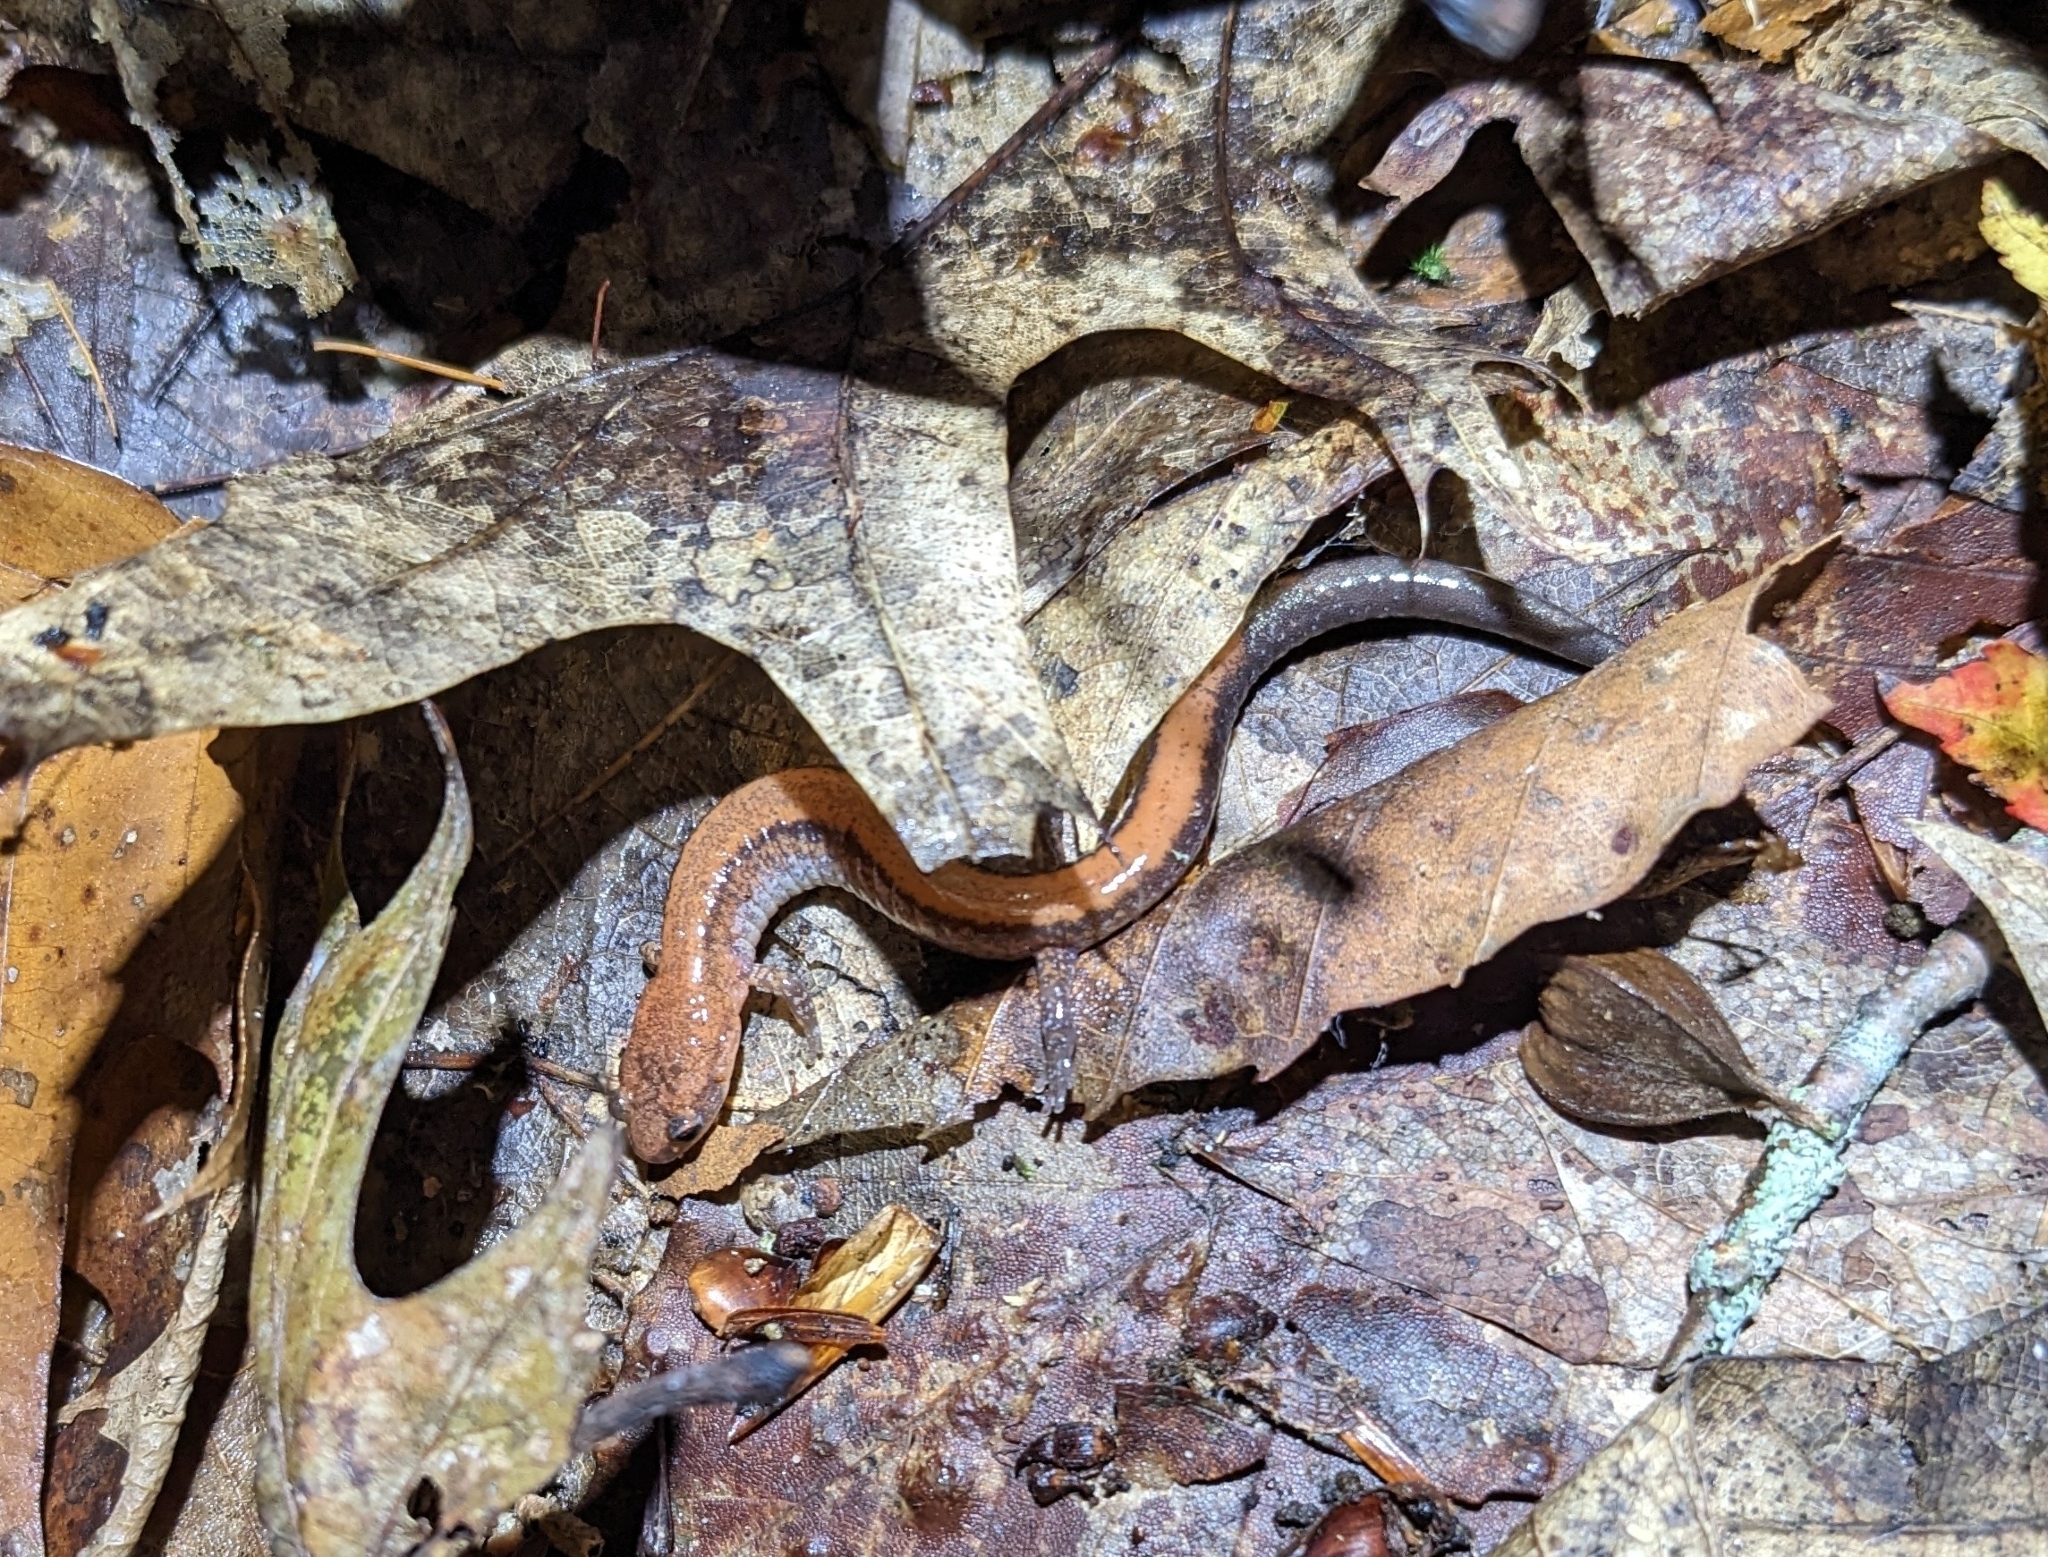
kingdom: Animalia
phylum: Chordata
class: Amphibia
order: Caudata
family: Plethodontidae
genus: Plethodon
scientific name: Plethodon cinereus
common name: Redback salamander
